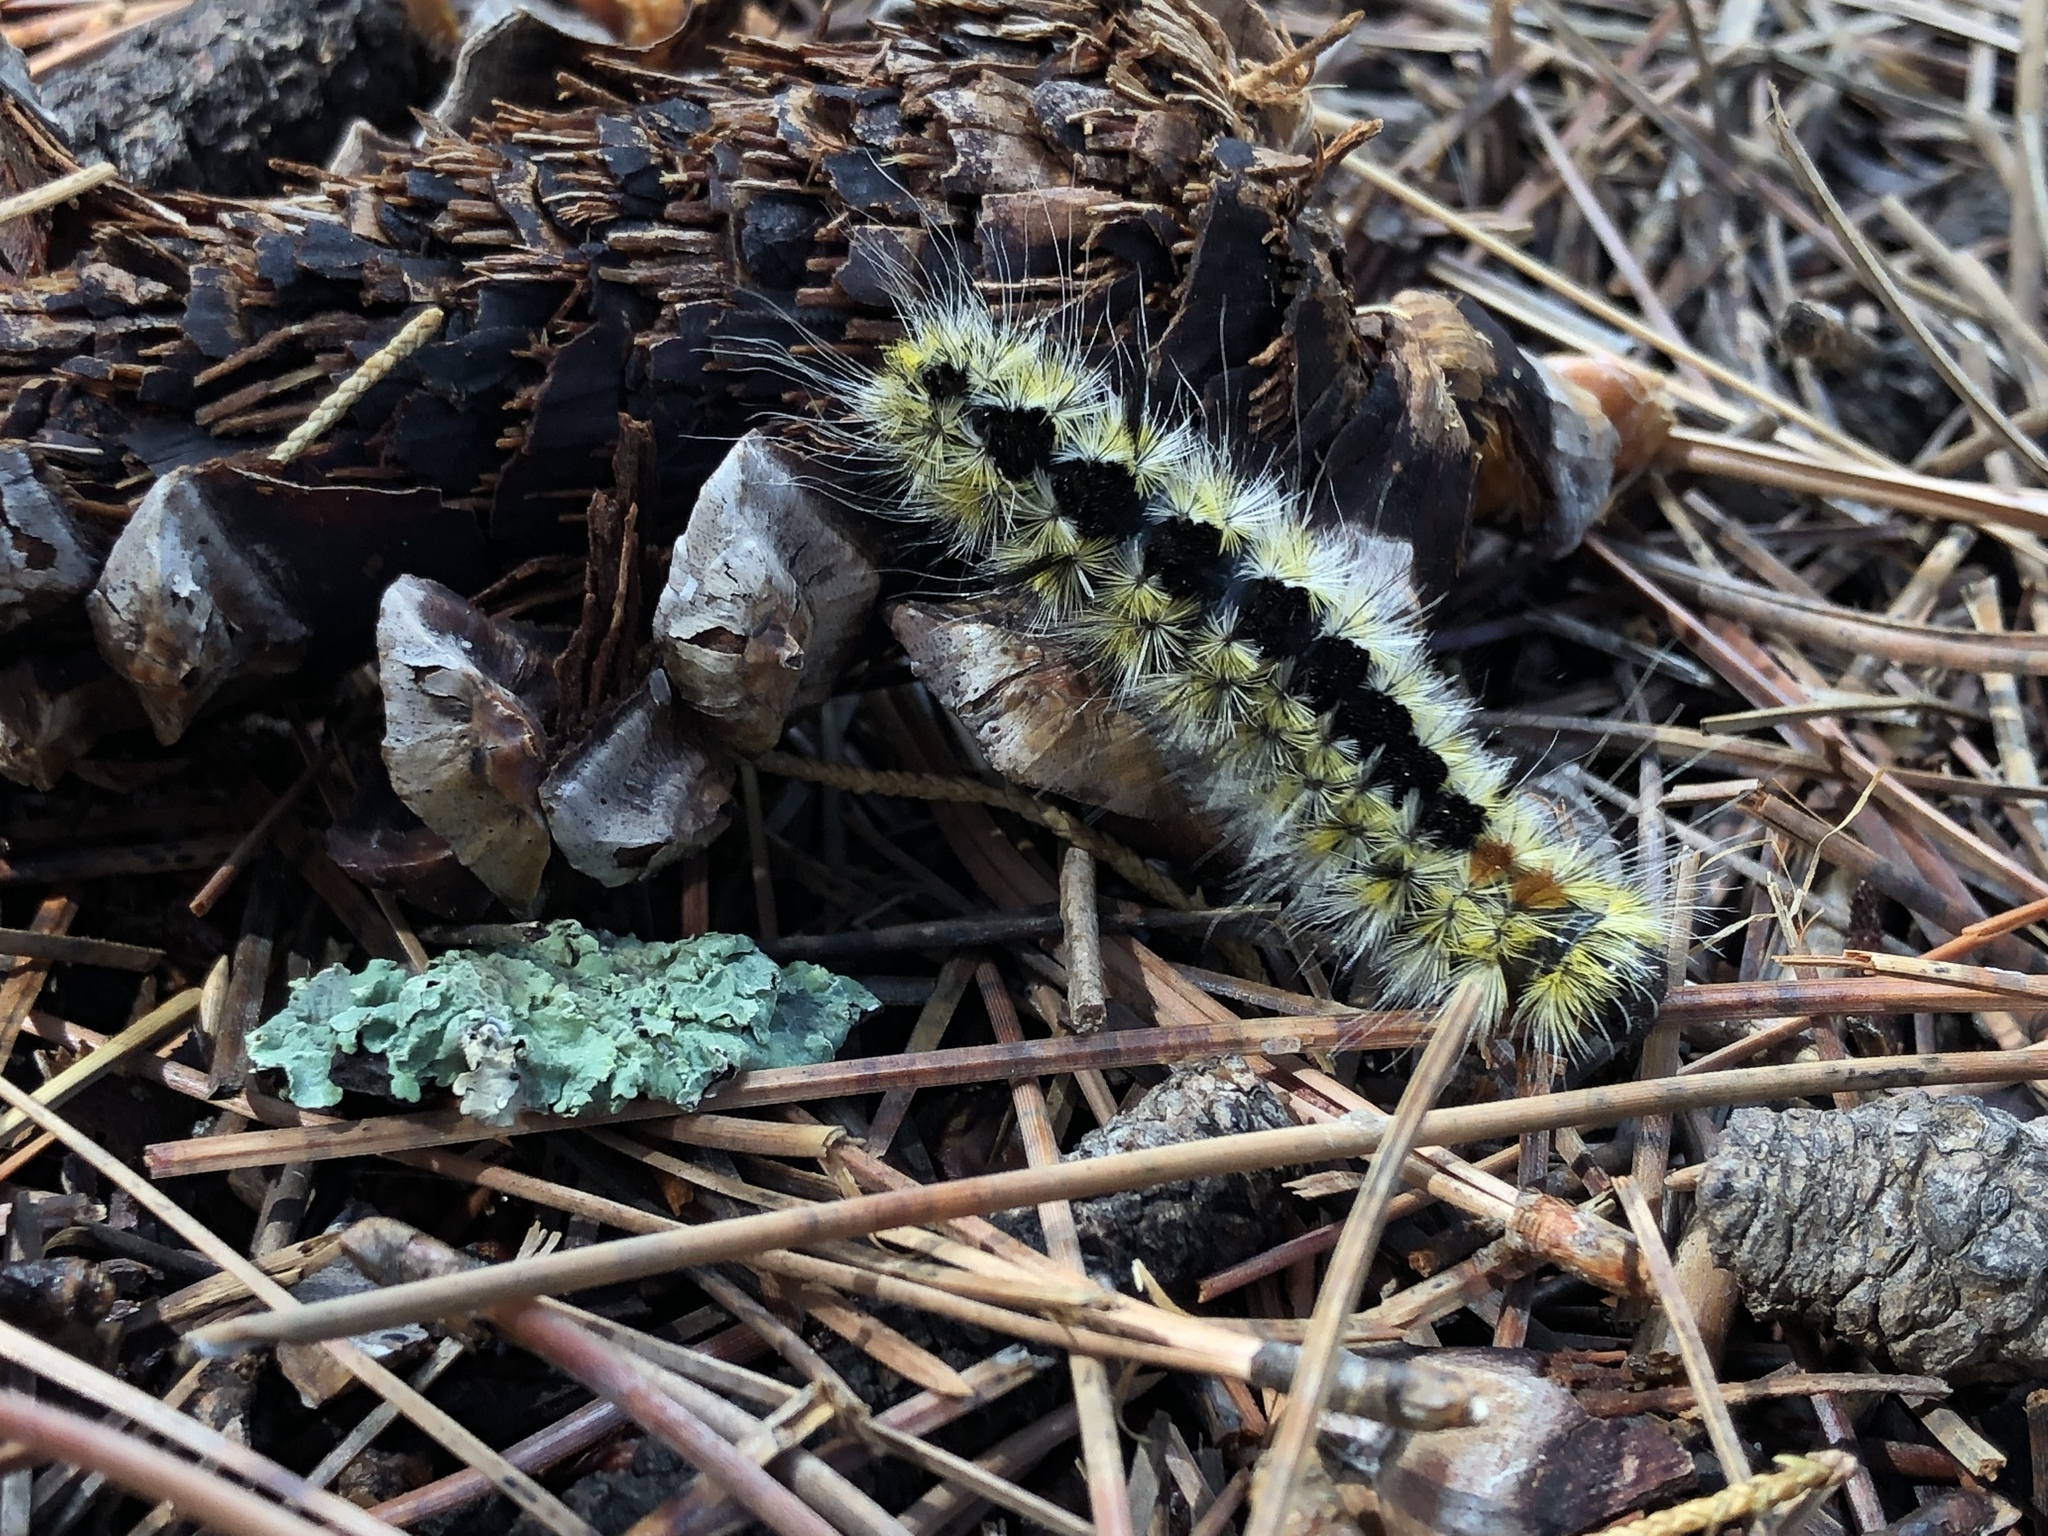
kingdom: Animalia
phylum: Arthropoda
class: Insecta
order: Lepidoptera
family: Erebidae
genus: Lophocampa
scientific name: Lophocampa ingens
